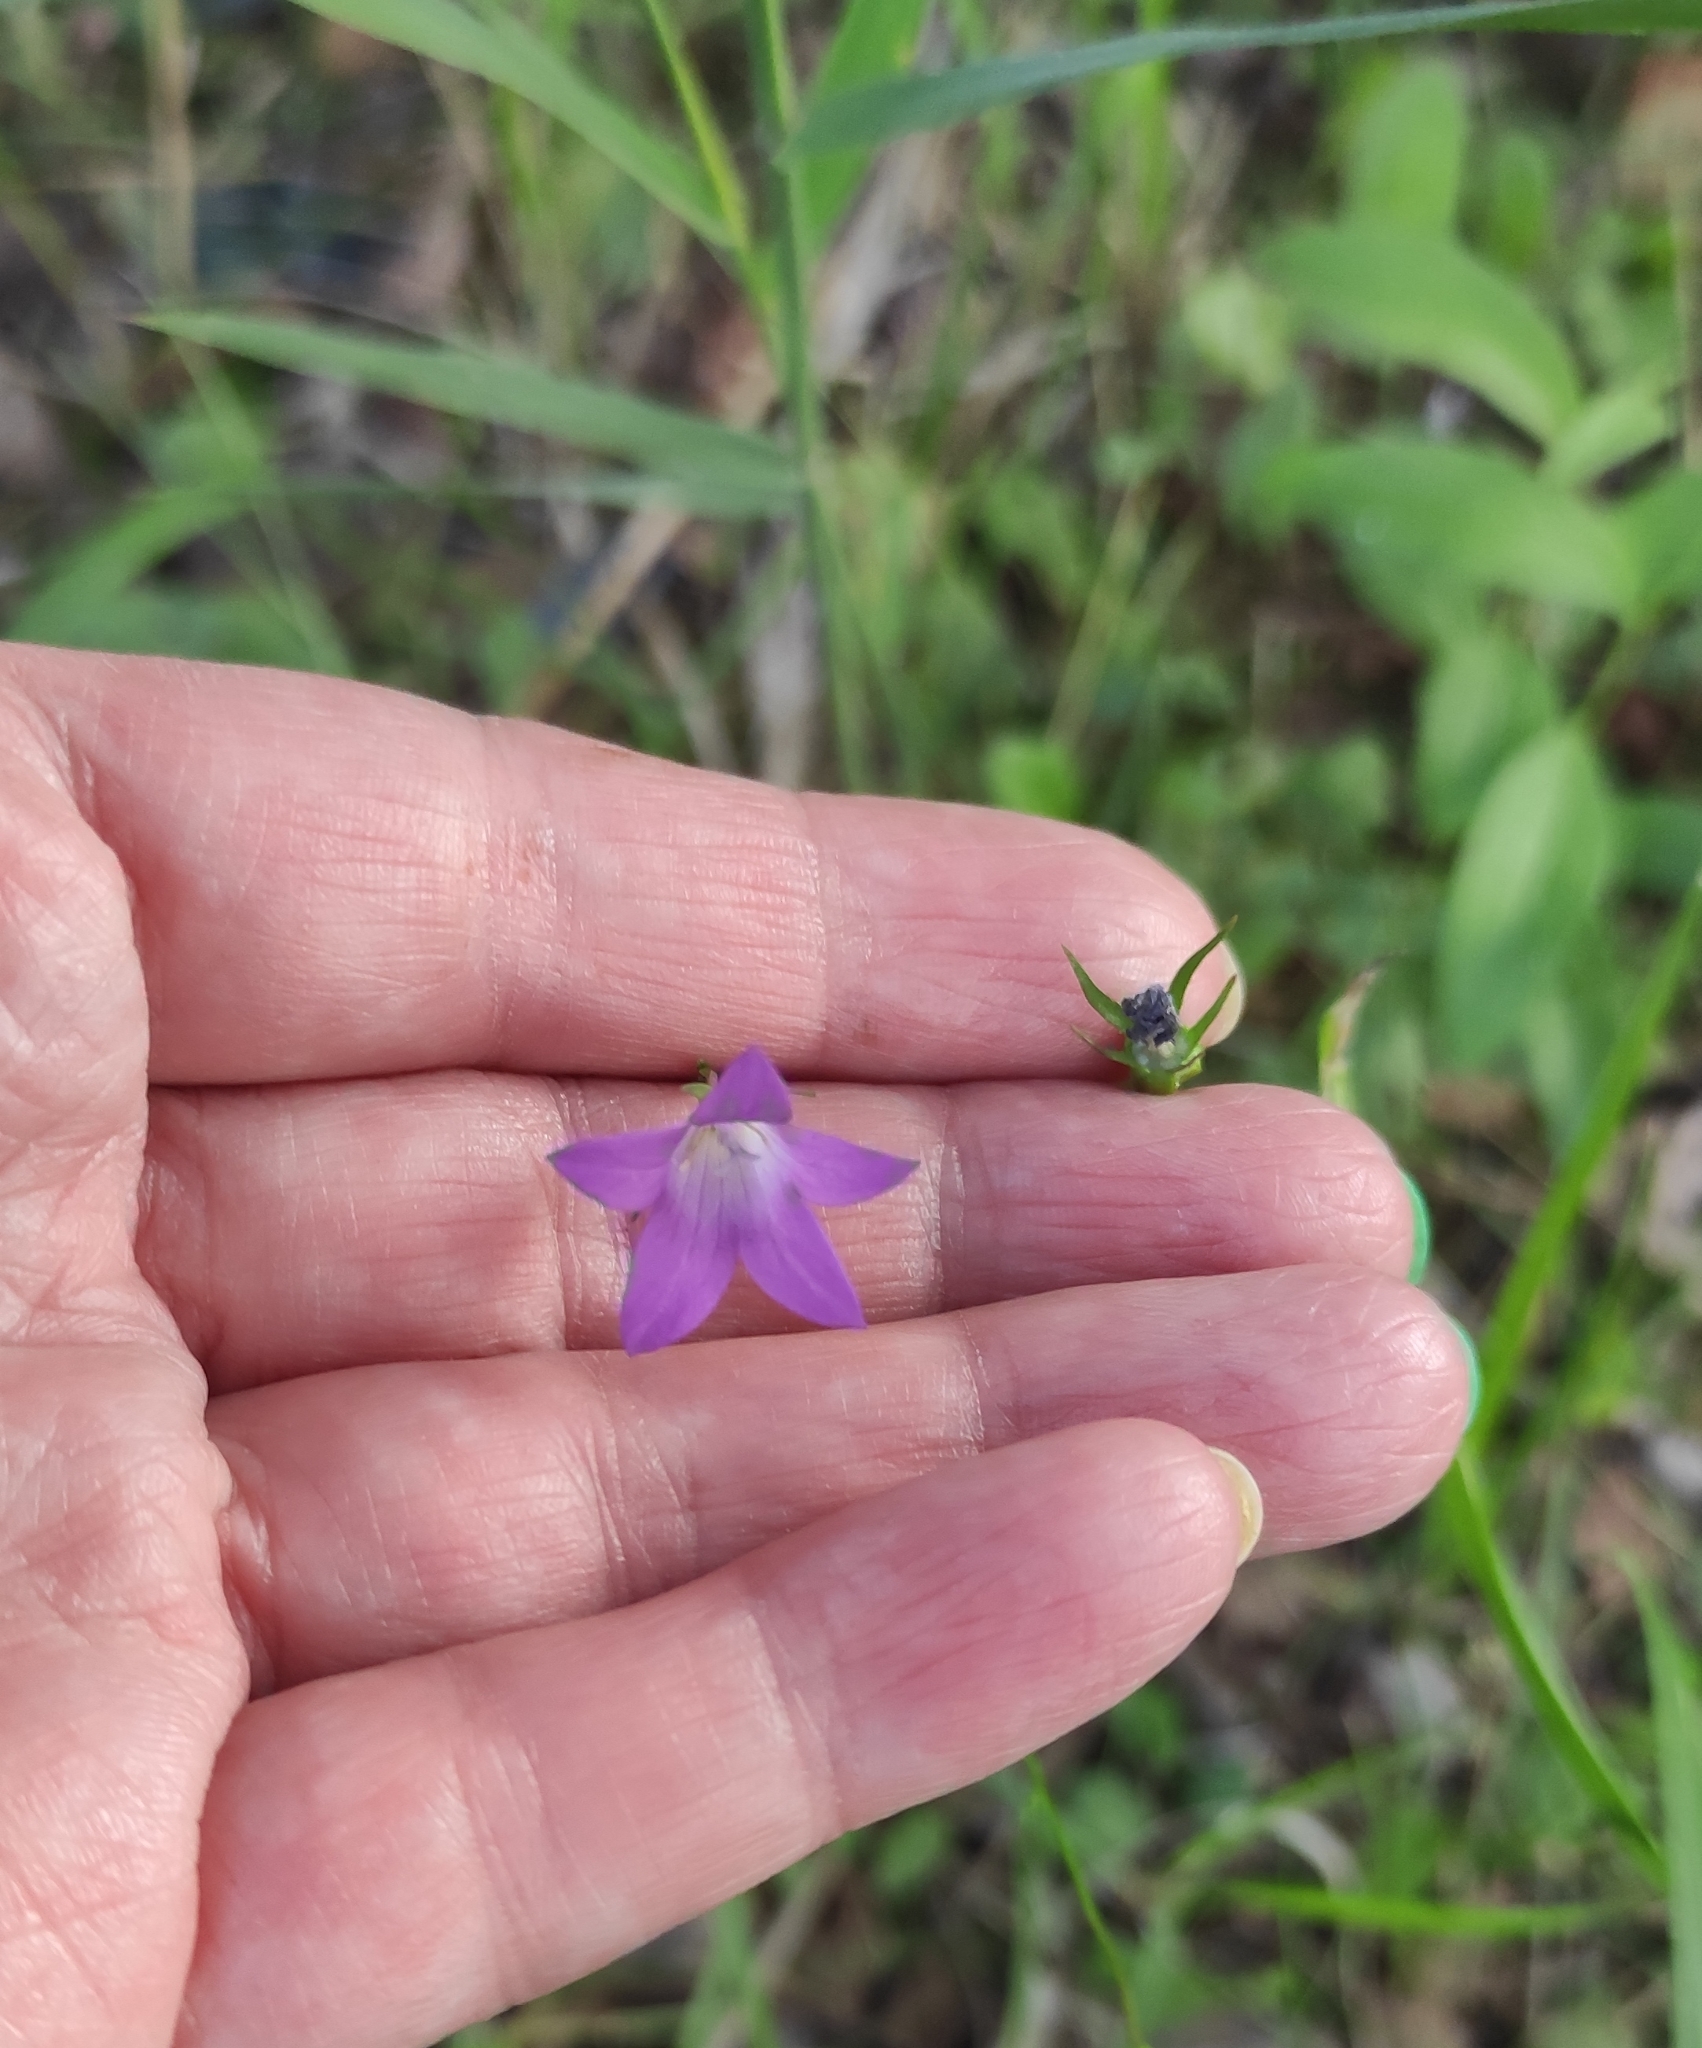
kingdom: Plantae
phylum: Tracheophyta
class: Magnoliopsida
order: Asterales
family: Campanulaceae
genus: Campanula
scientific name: Campanula patula
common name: Spreading bellflower
